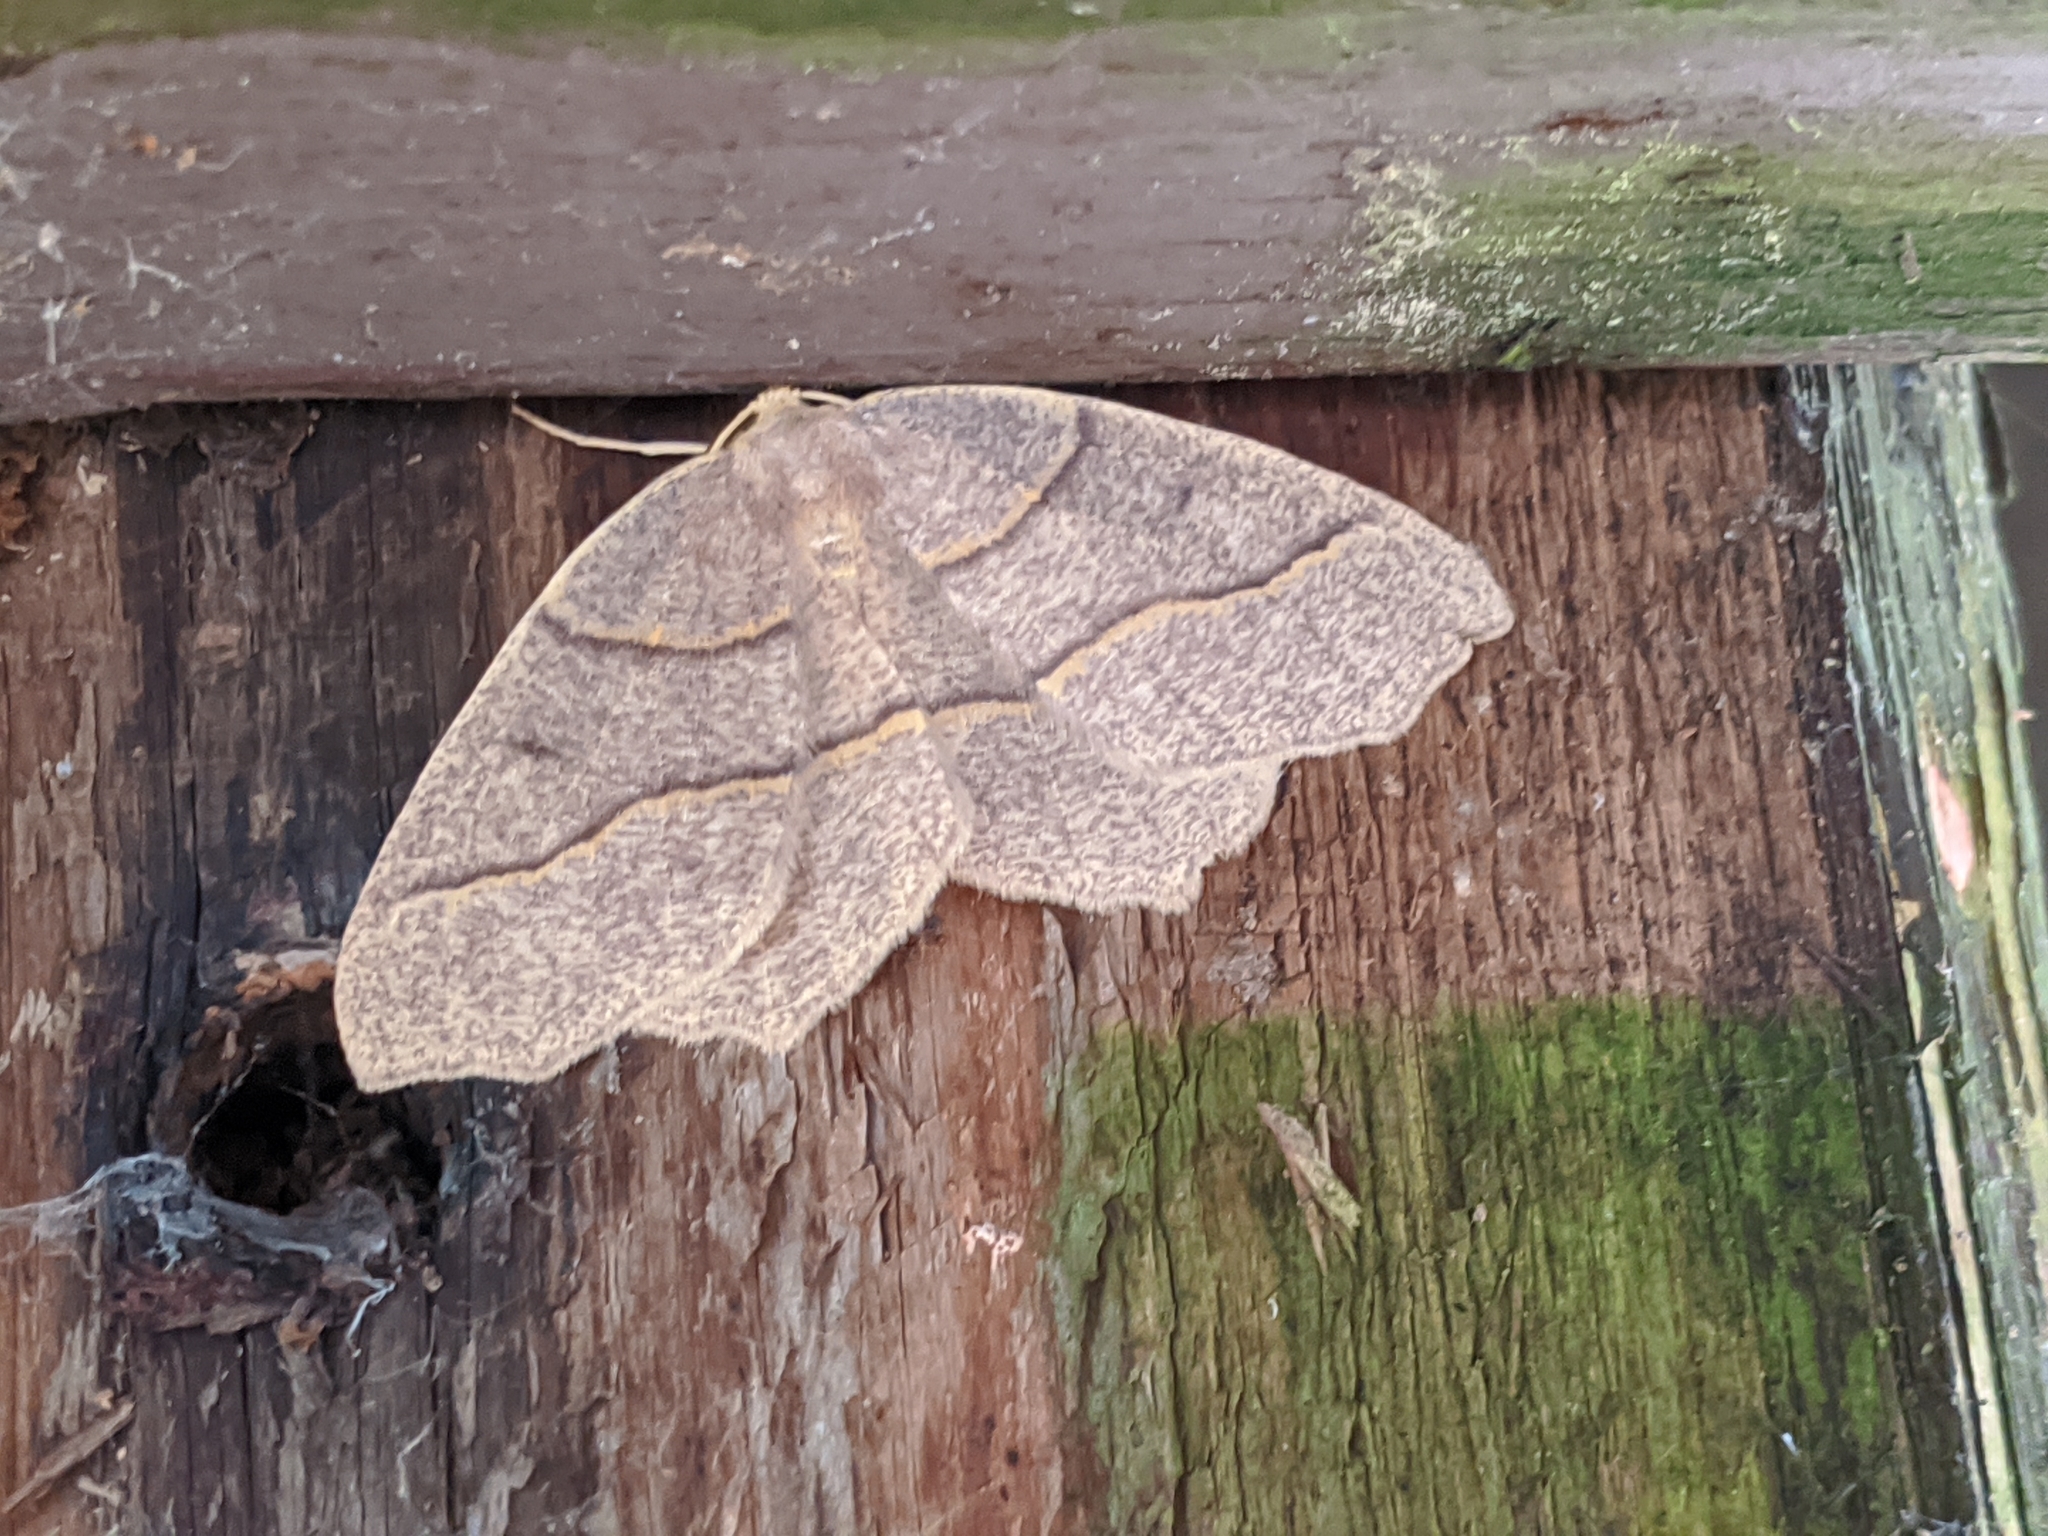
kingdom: Animalia
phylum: Arthropoda
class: Insecta
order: Lepidoptera
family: Geometridae
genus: Lambdina
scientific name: Lambdina fiscellaria
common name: Hemlock looper
